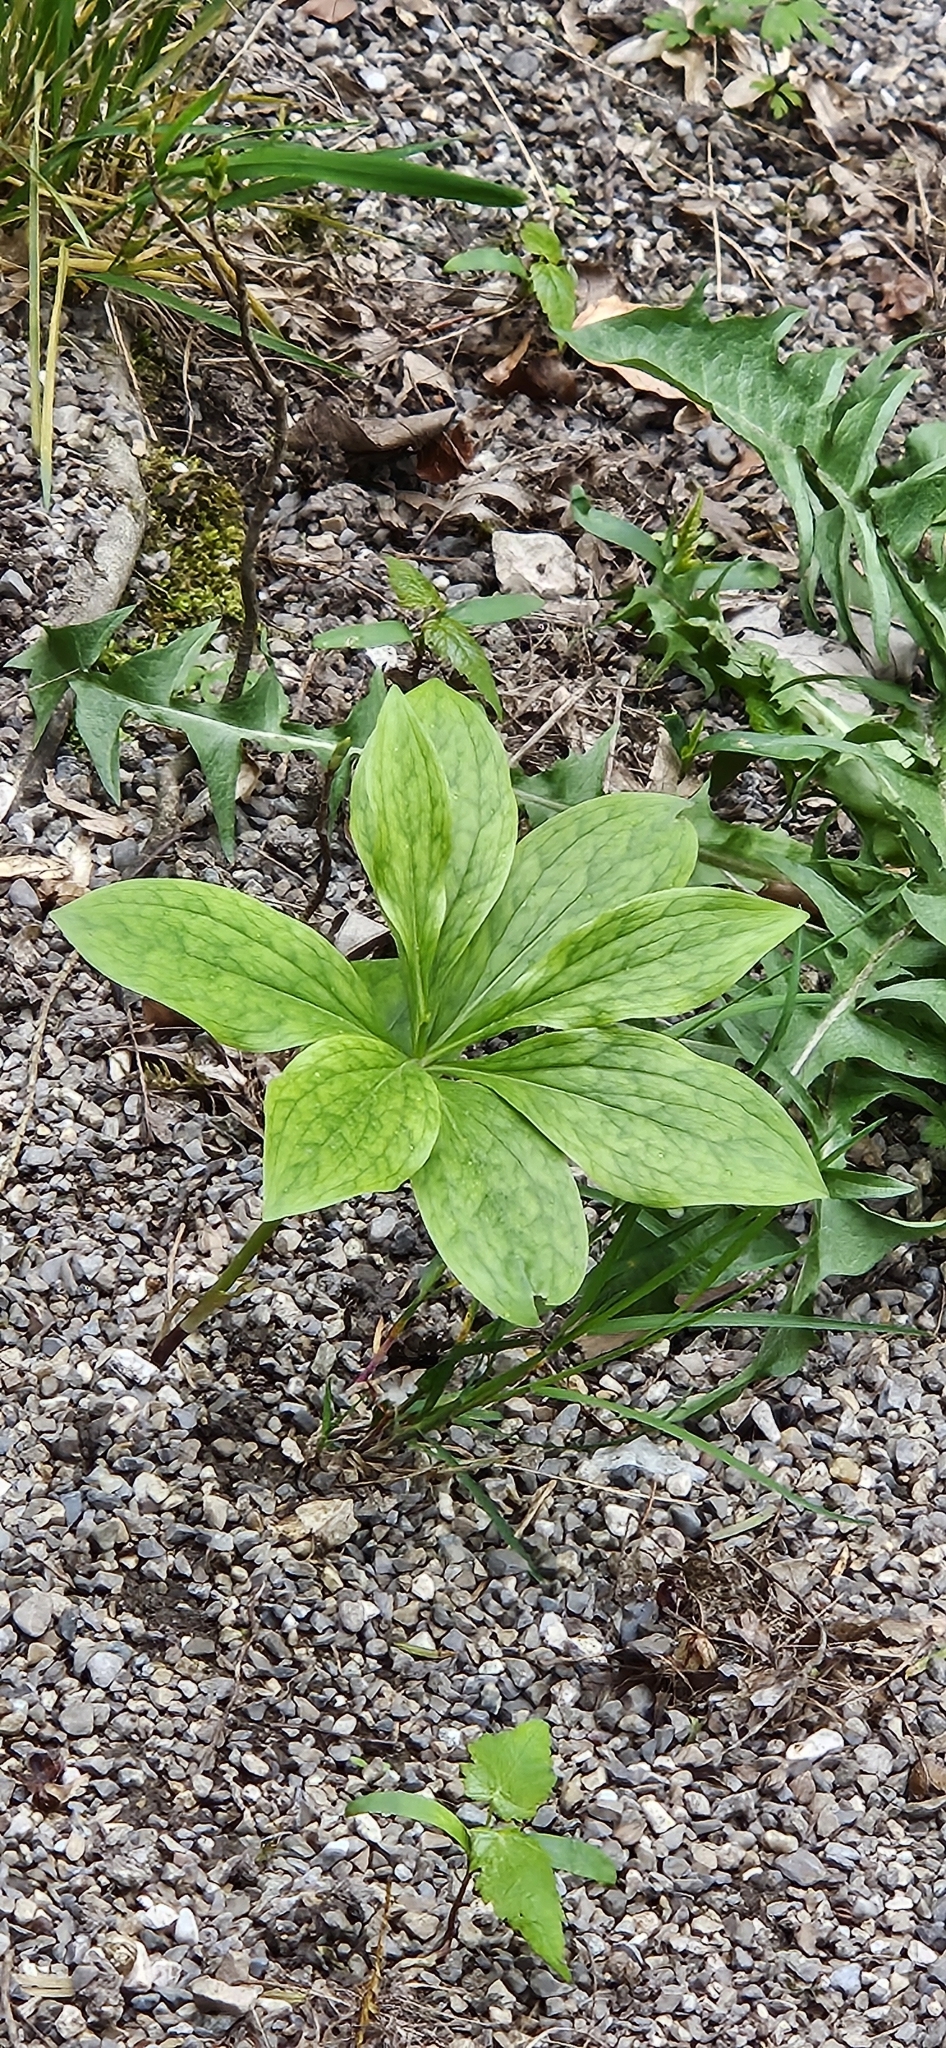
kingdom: Plantae
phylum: Tracheophyta
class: Liliopsida
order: Liliales
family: Liliaceae
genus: Lilium
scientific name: Lilium martagon
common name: Martagon lily
